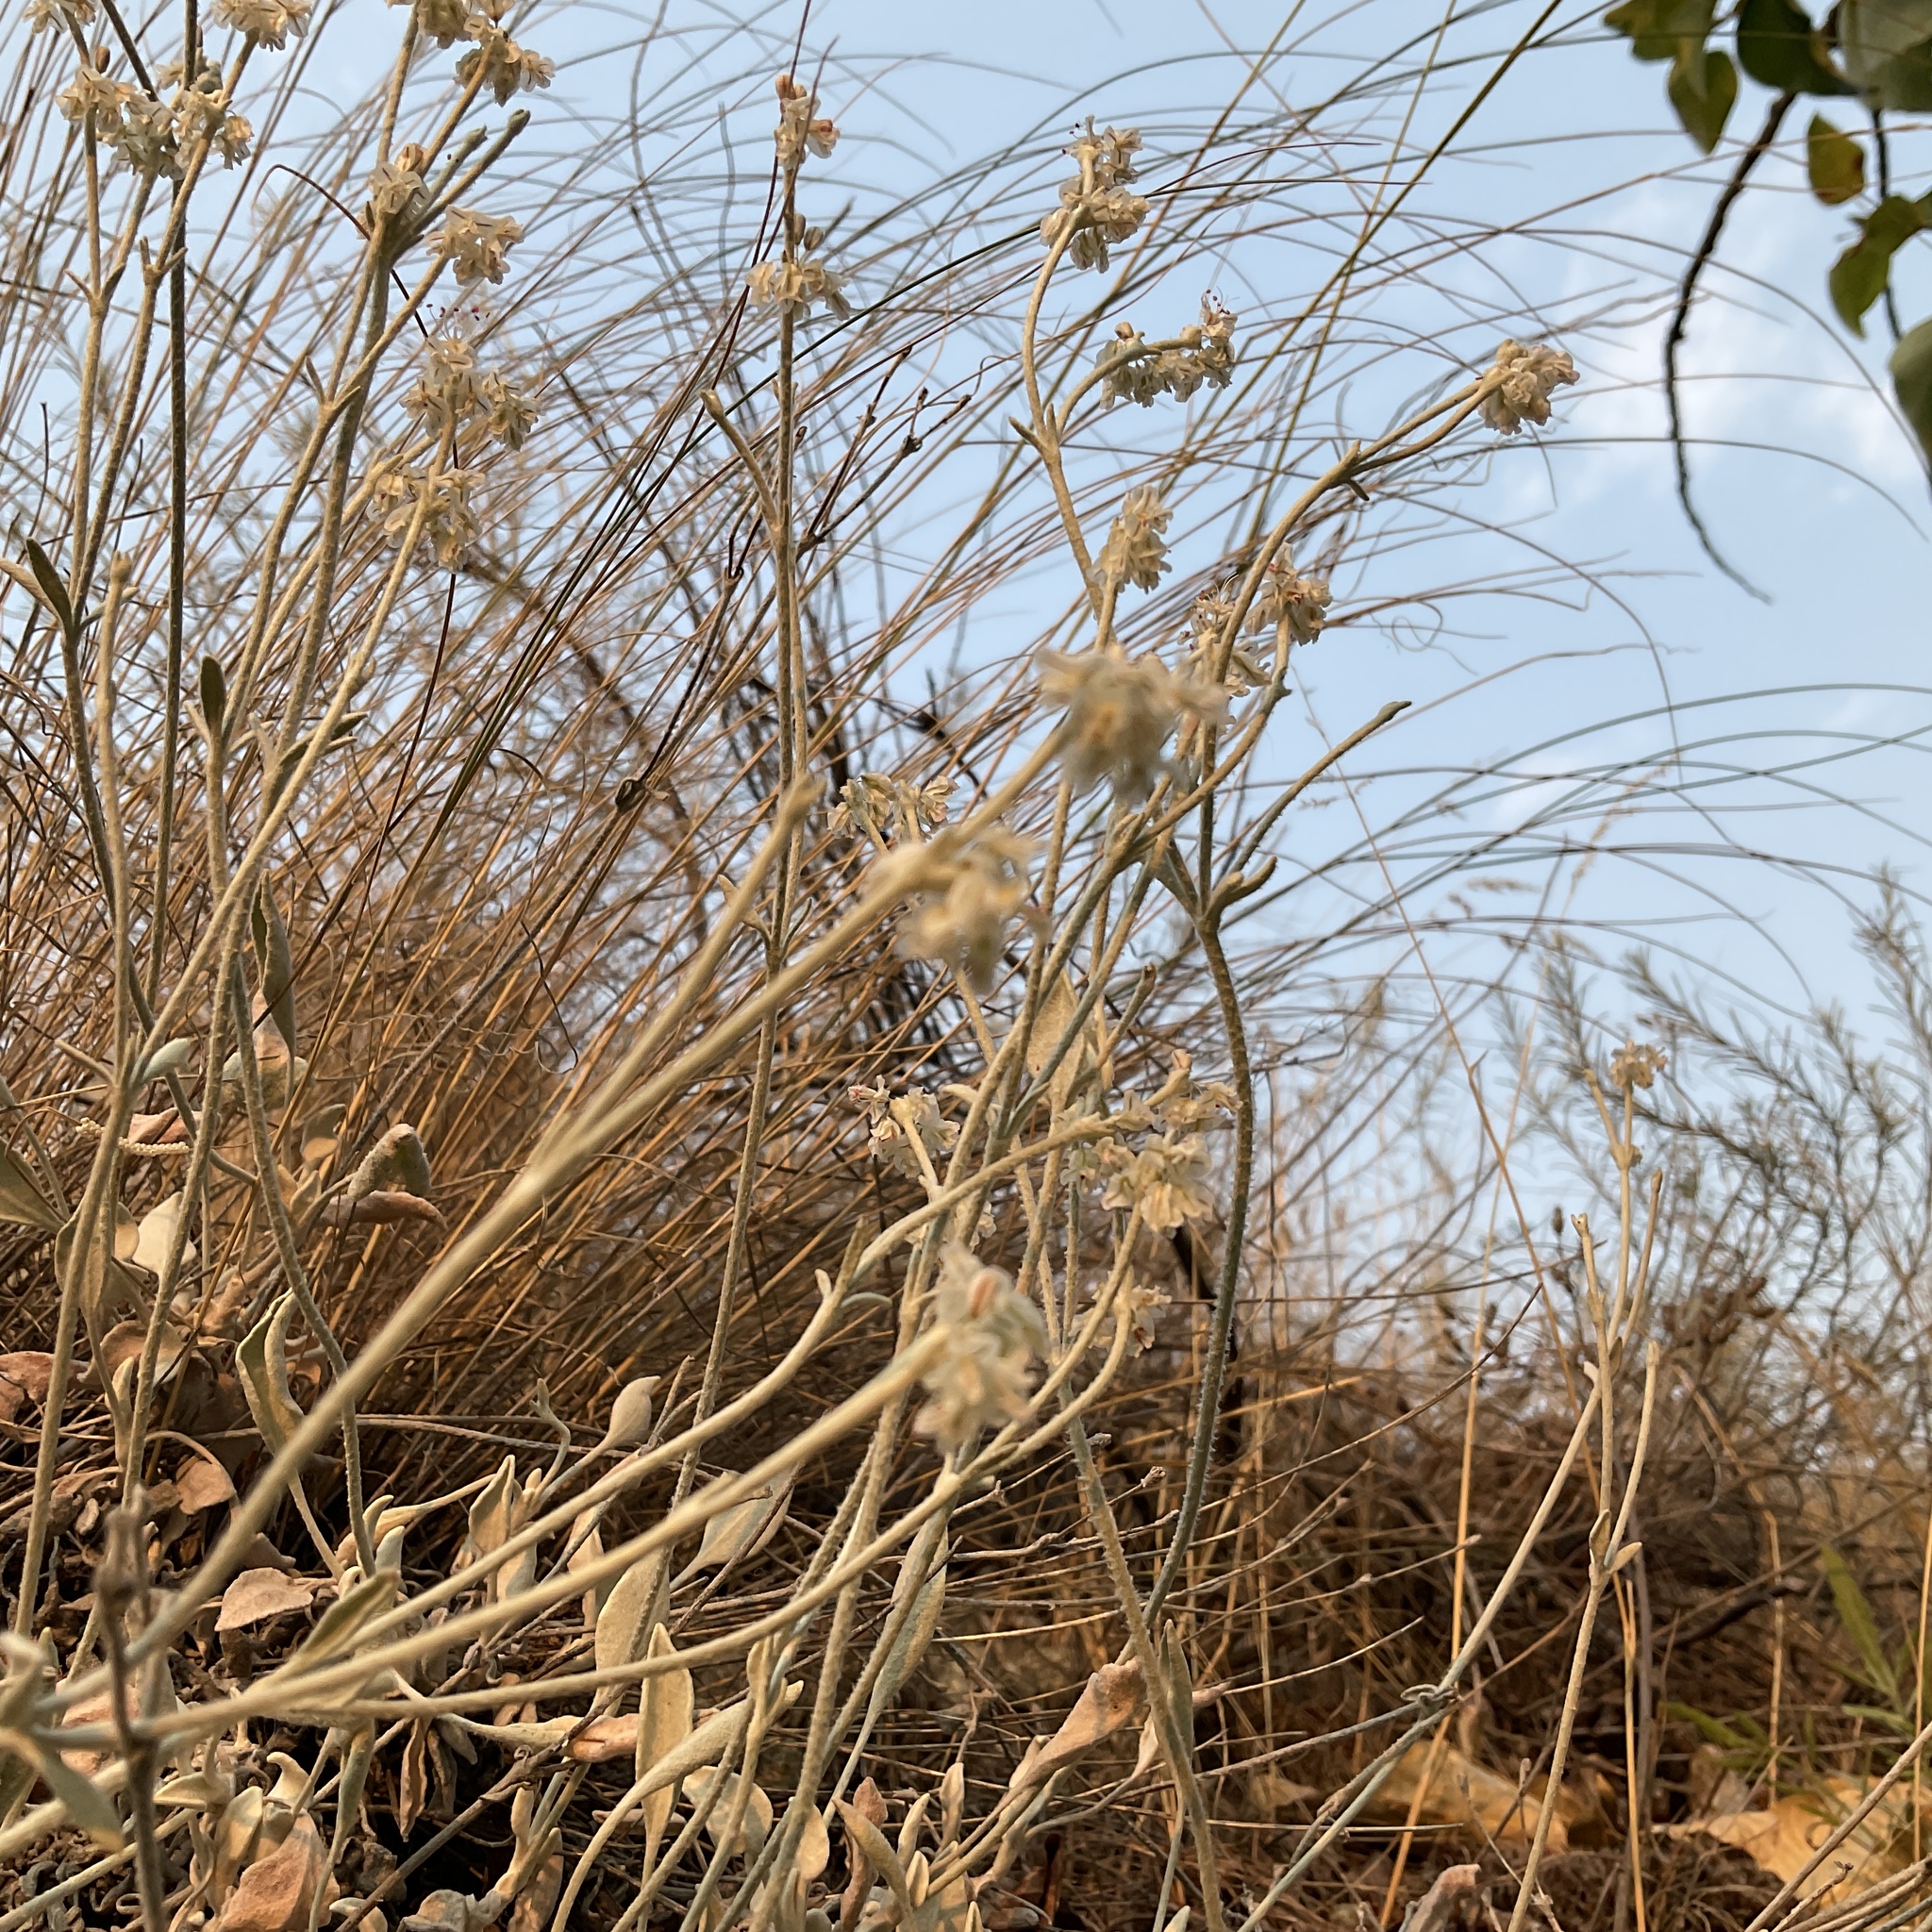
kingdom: Plantae
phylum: Tracheophyta
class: Magnoliopsida
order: Caryophyllales
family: Polygonaceae
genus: Eriogonum
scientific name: Eriogonum niveum
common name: Snow wild buckwheat
